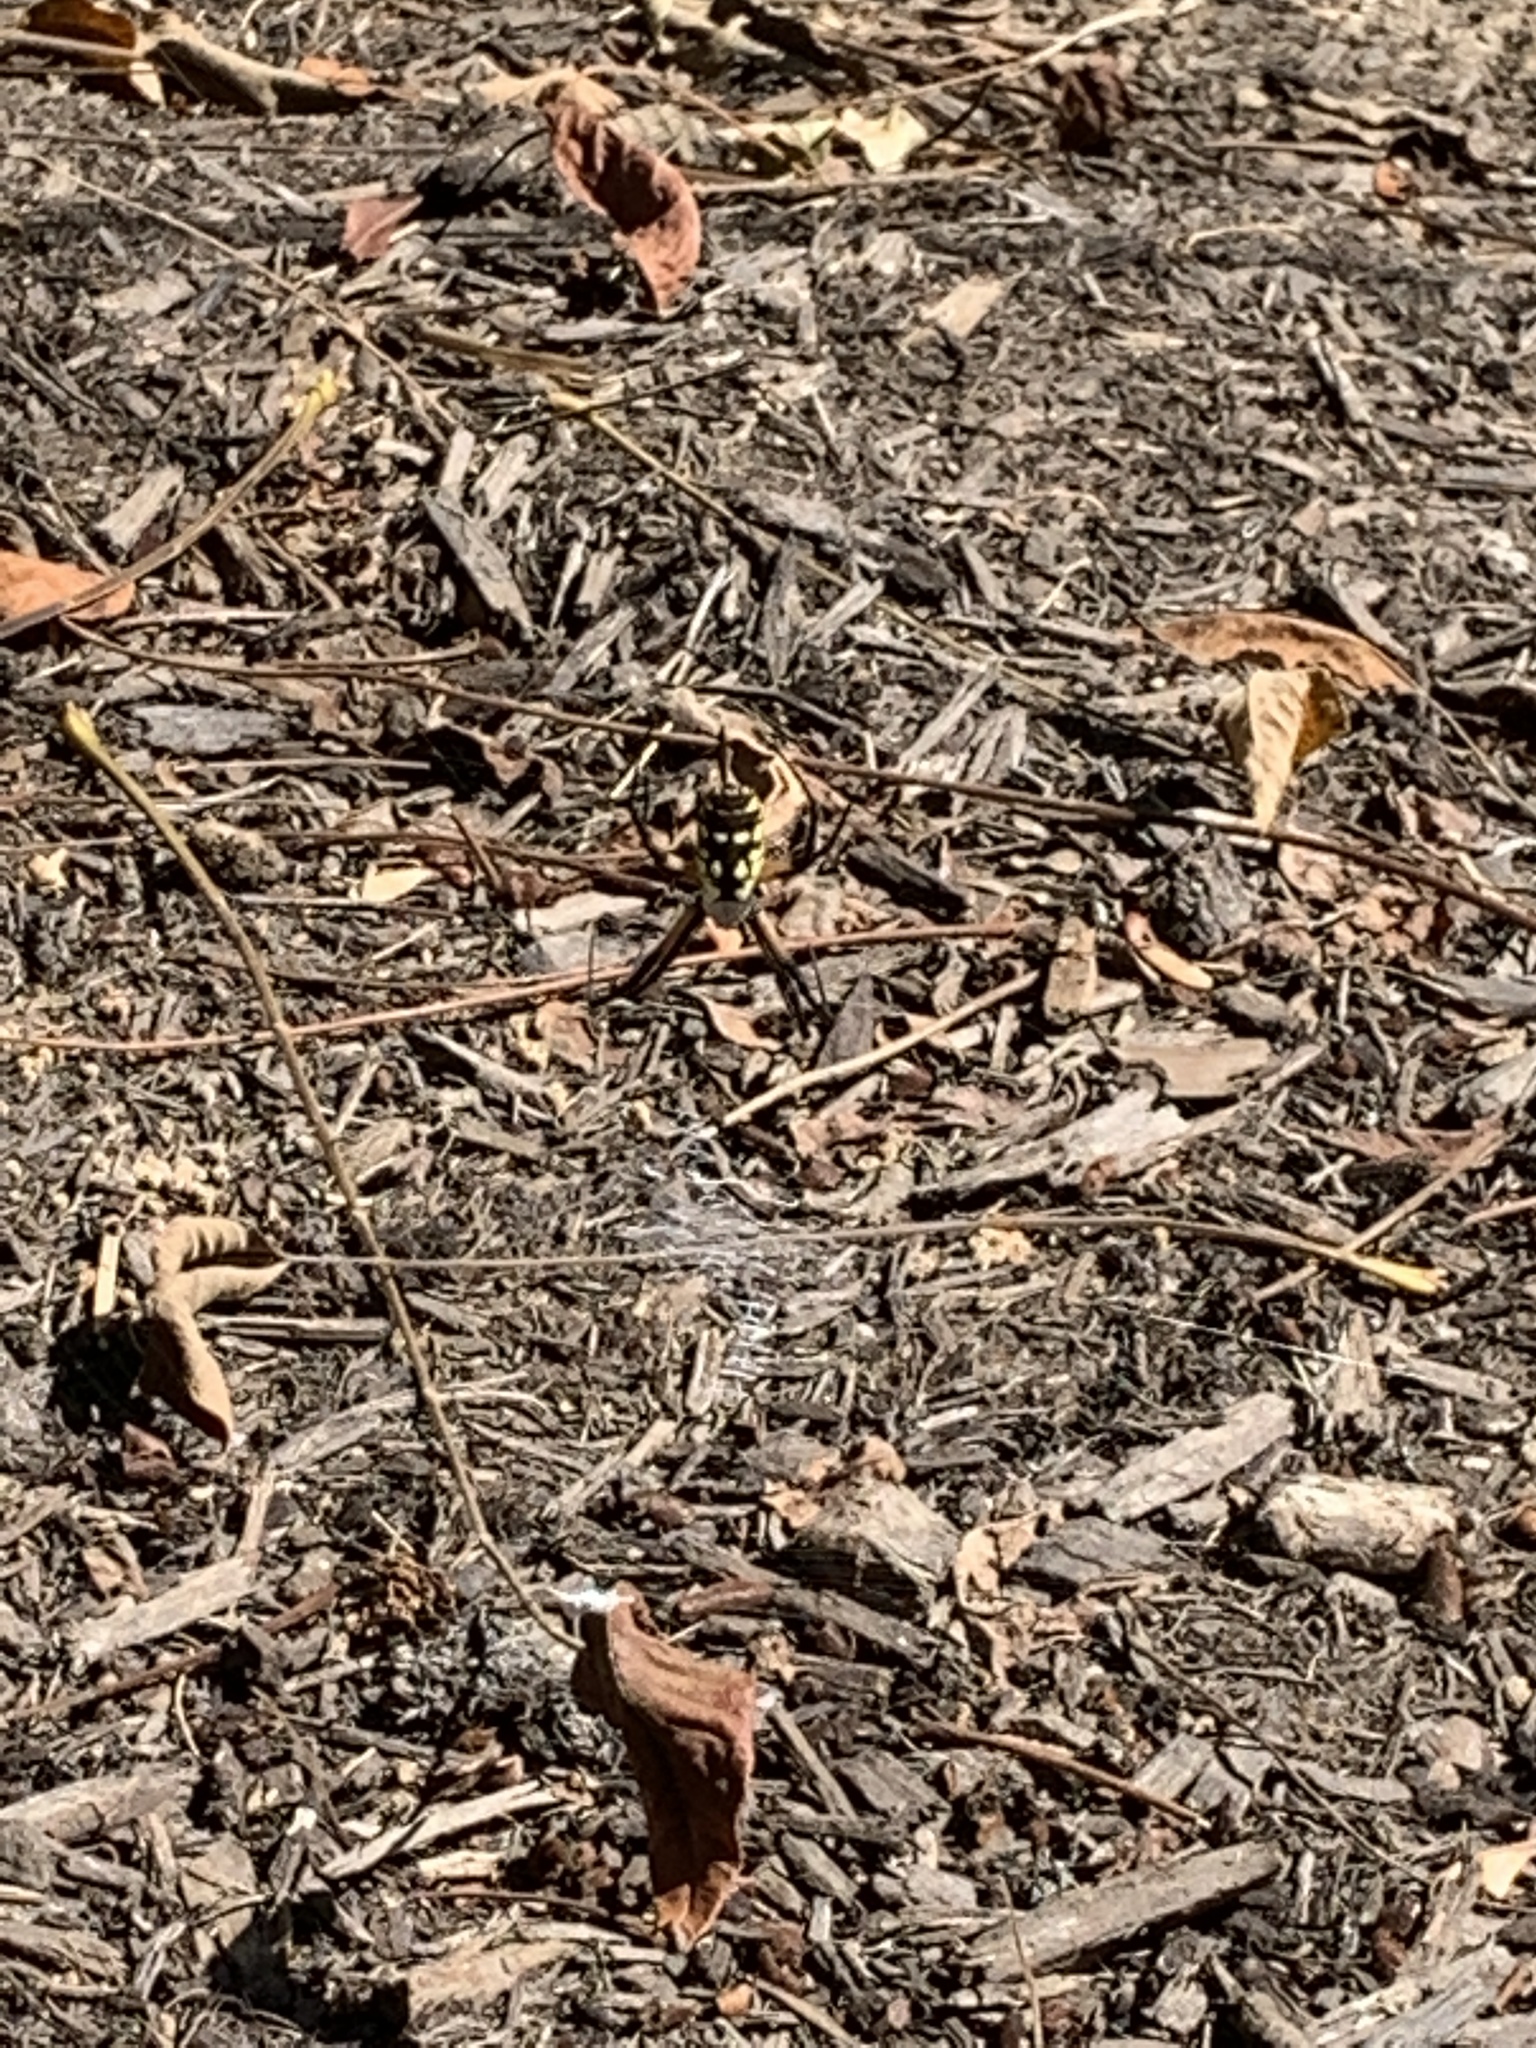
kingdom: Animalia
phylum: Arthropoda
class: Arachnida
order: Araneae
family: Araneidae
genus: Argiope
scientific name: Argiope aurantia
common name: Orb weavers
